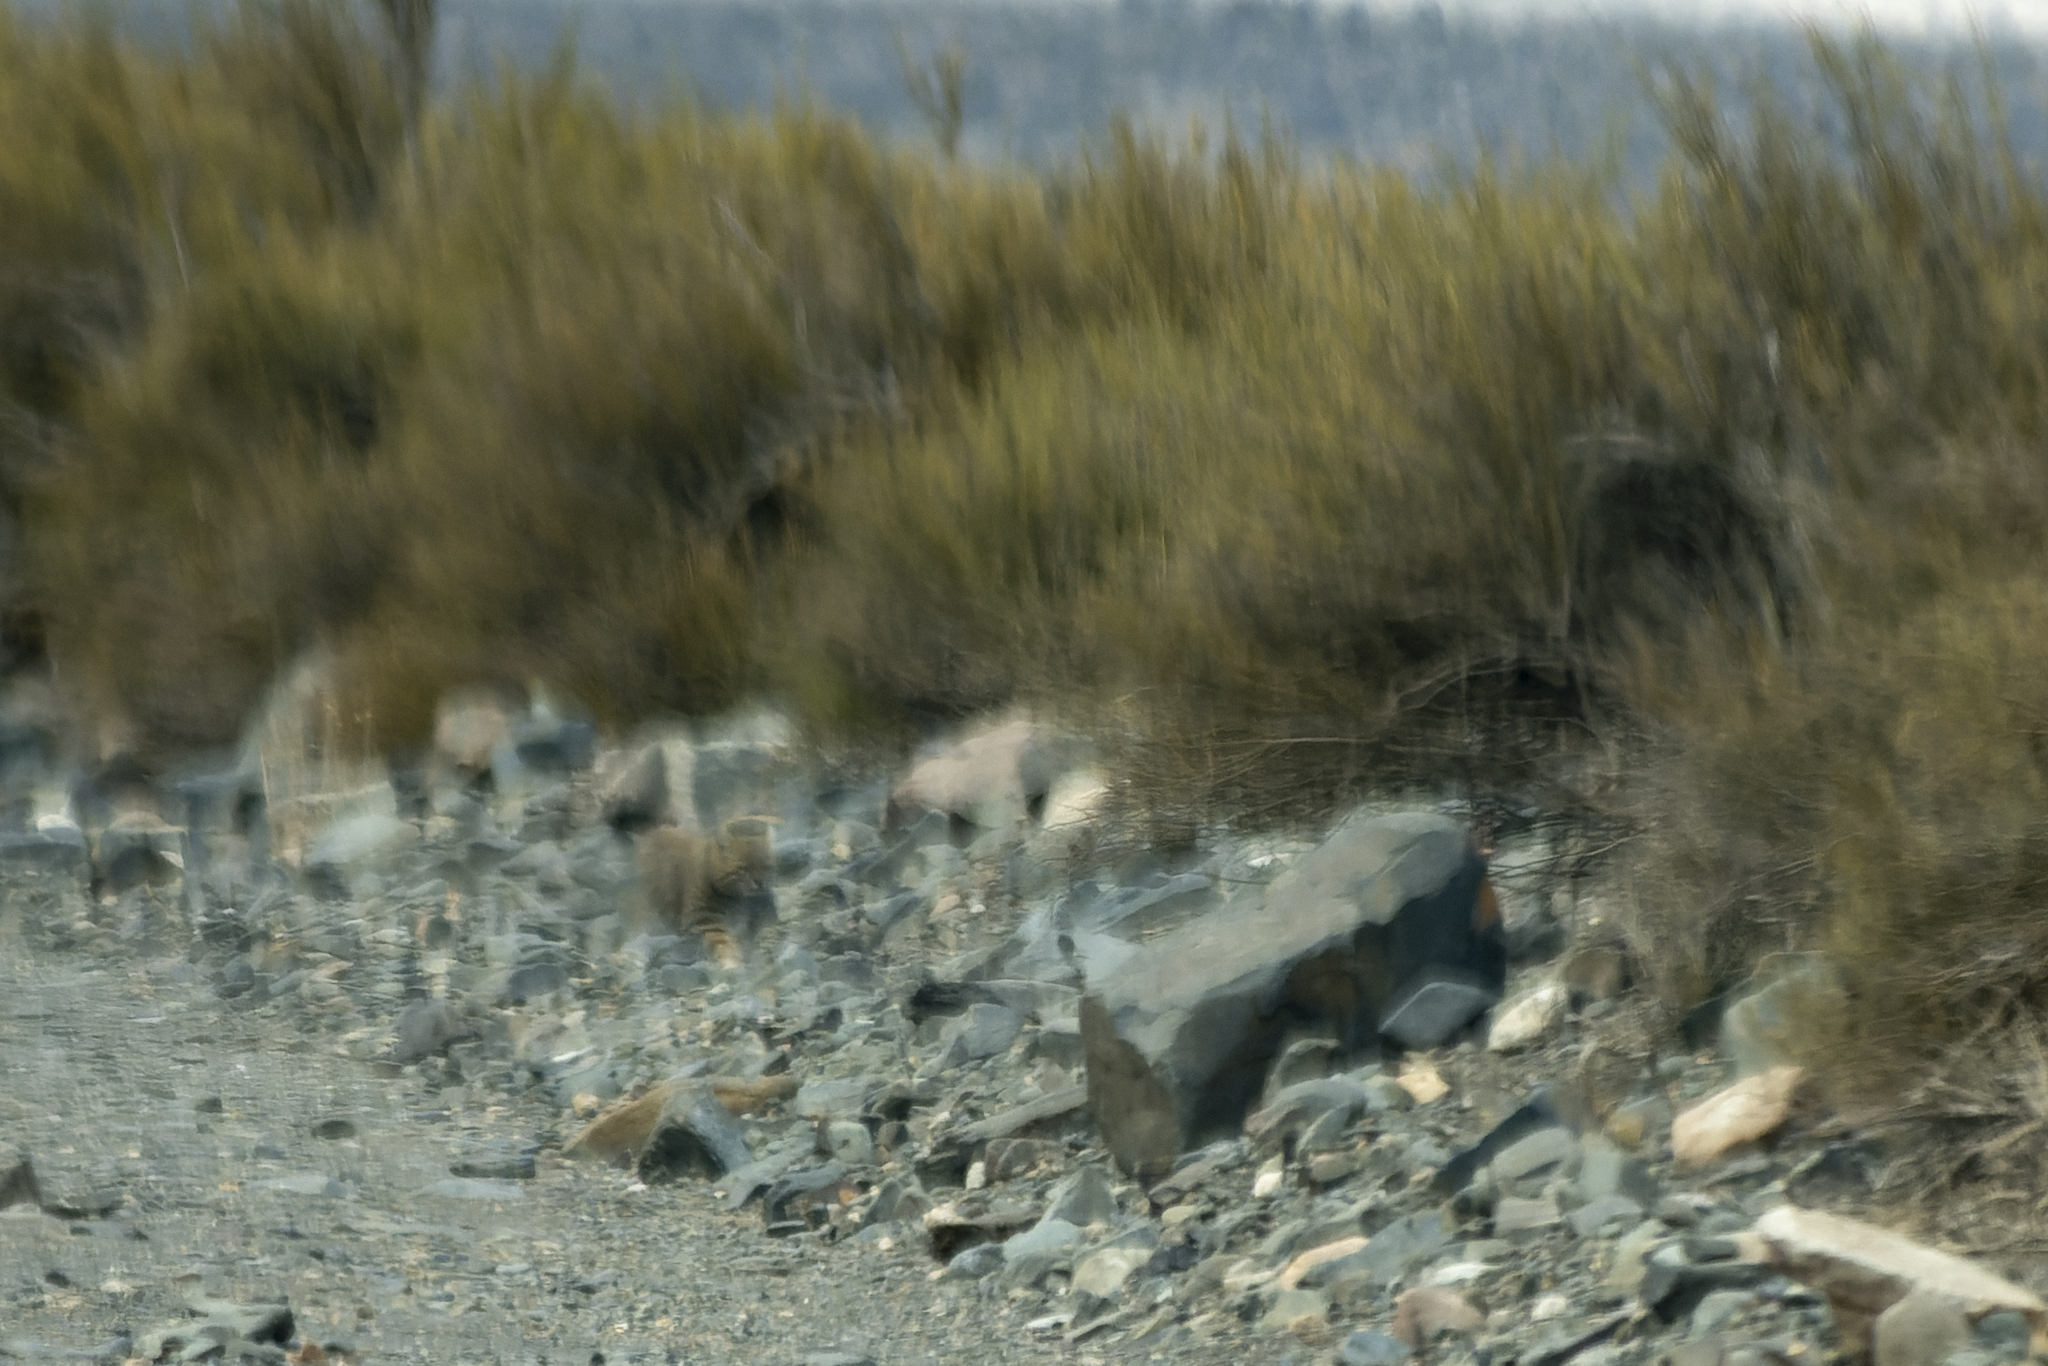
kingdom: Animalia
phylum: Chordata
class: Mammalia
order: Carnivora
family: Felidae
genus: Leopardus
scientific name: Leopardus pajeros
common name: Pampas cat
